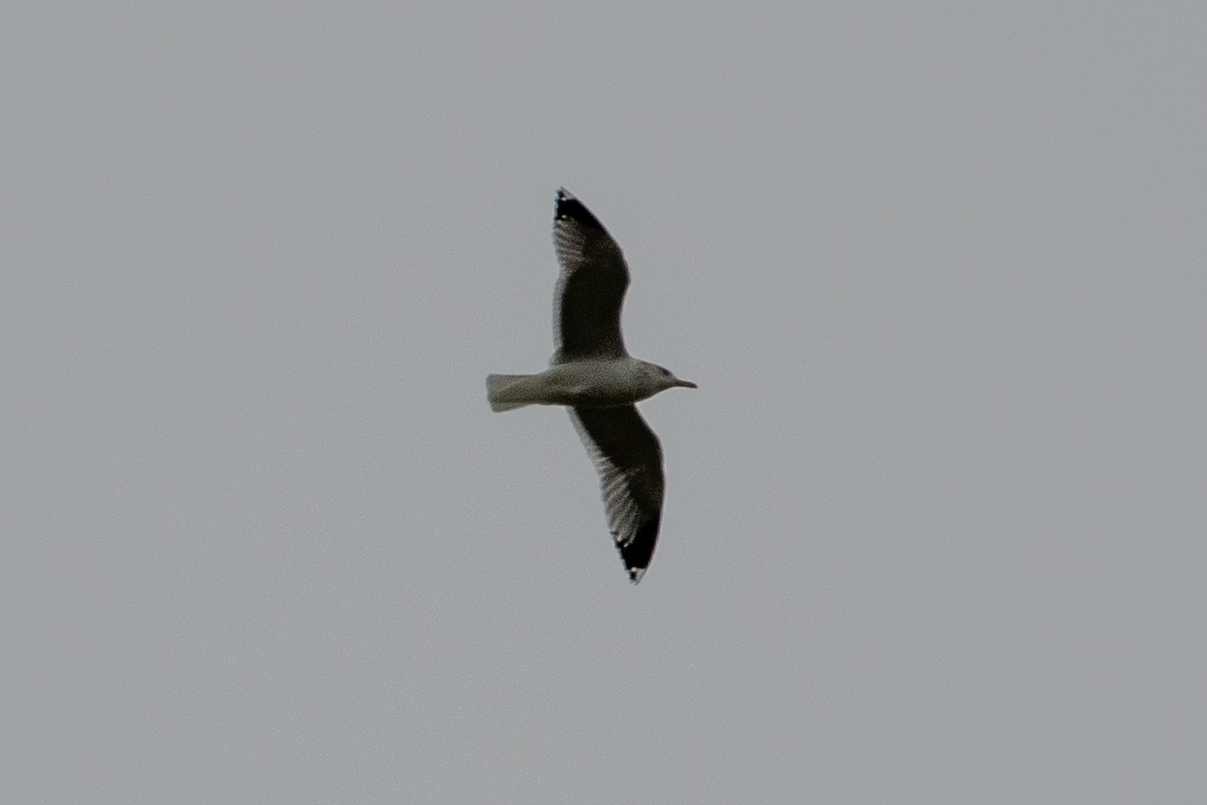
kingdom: Animalia
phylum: Chordata
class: Aves
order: Charadriiformes
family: Laridae
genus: Larus
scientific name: Larus
